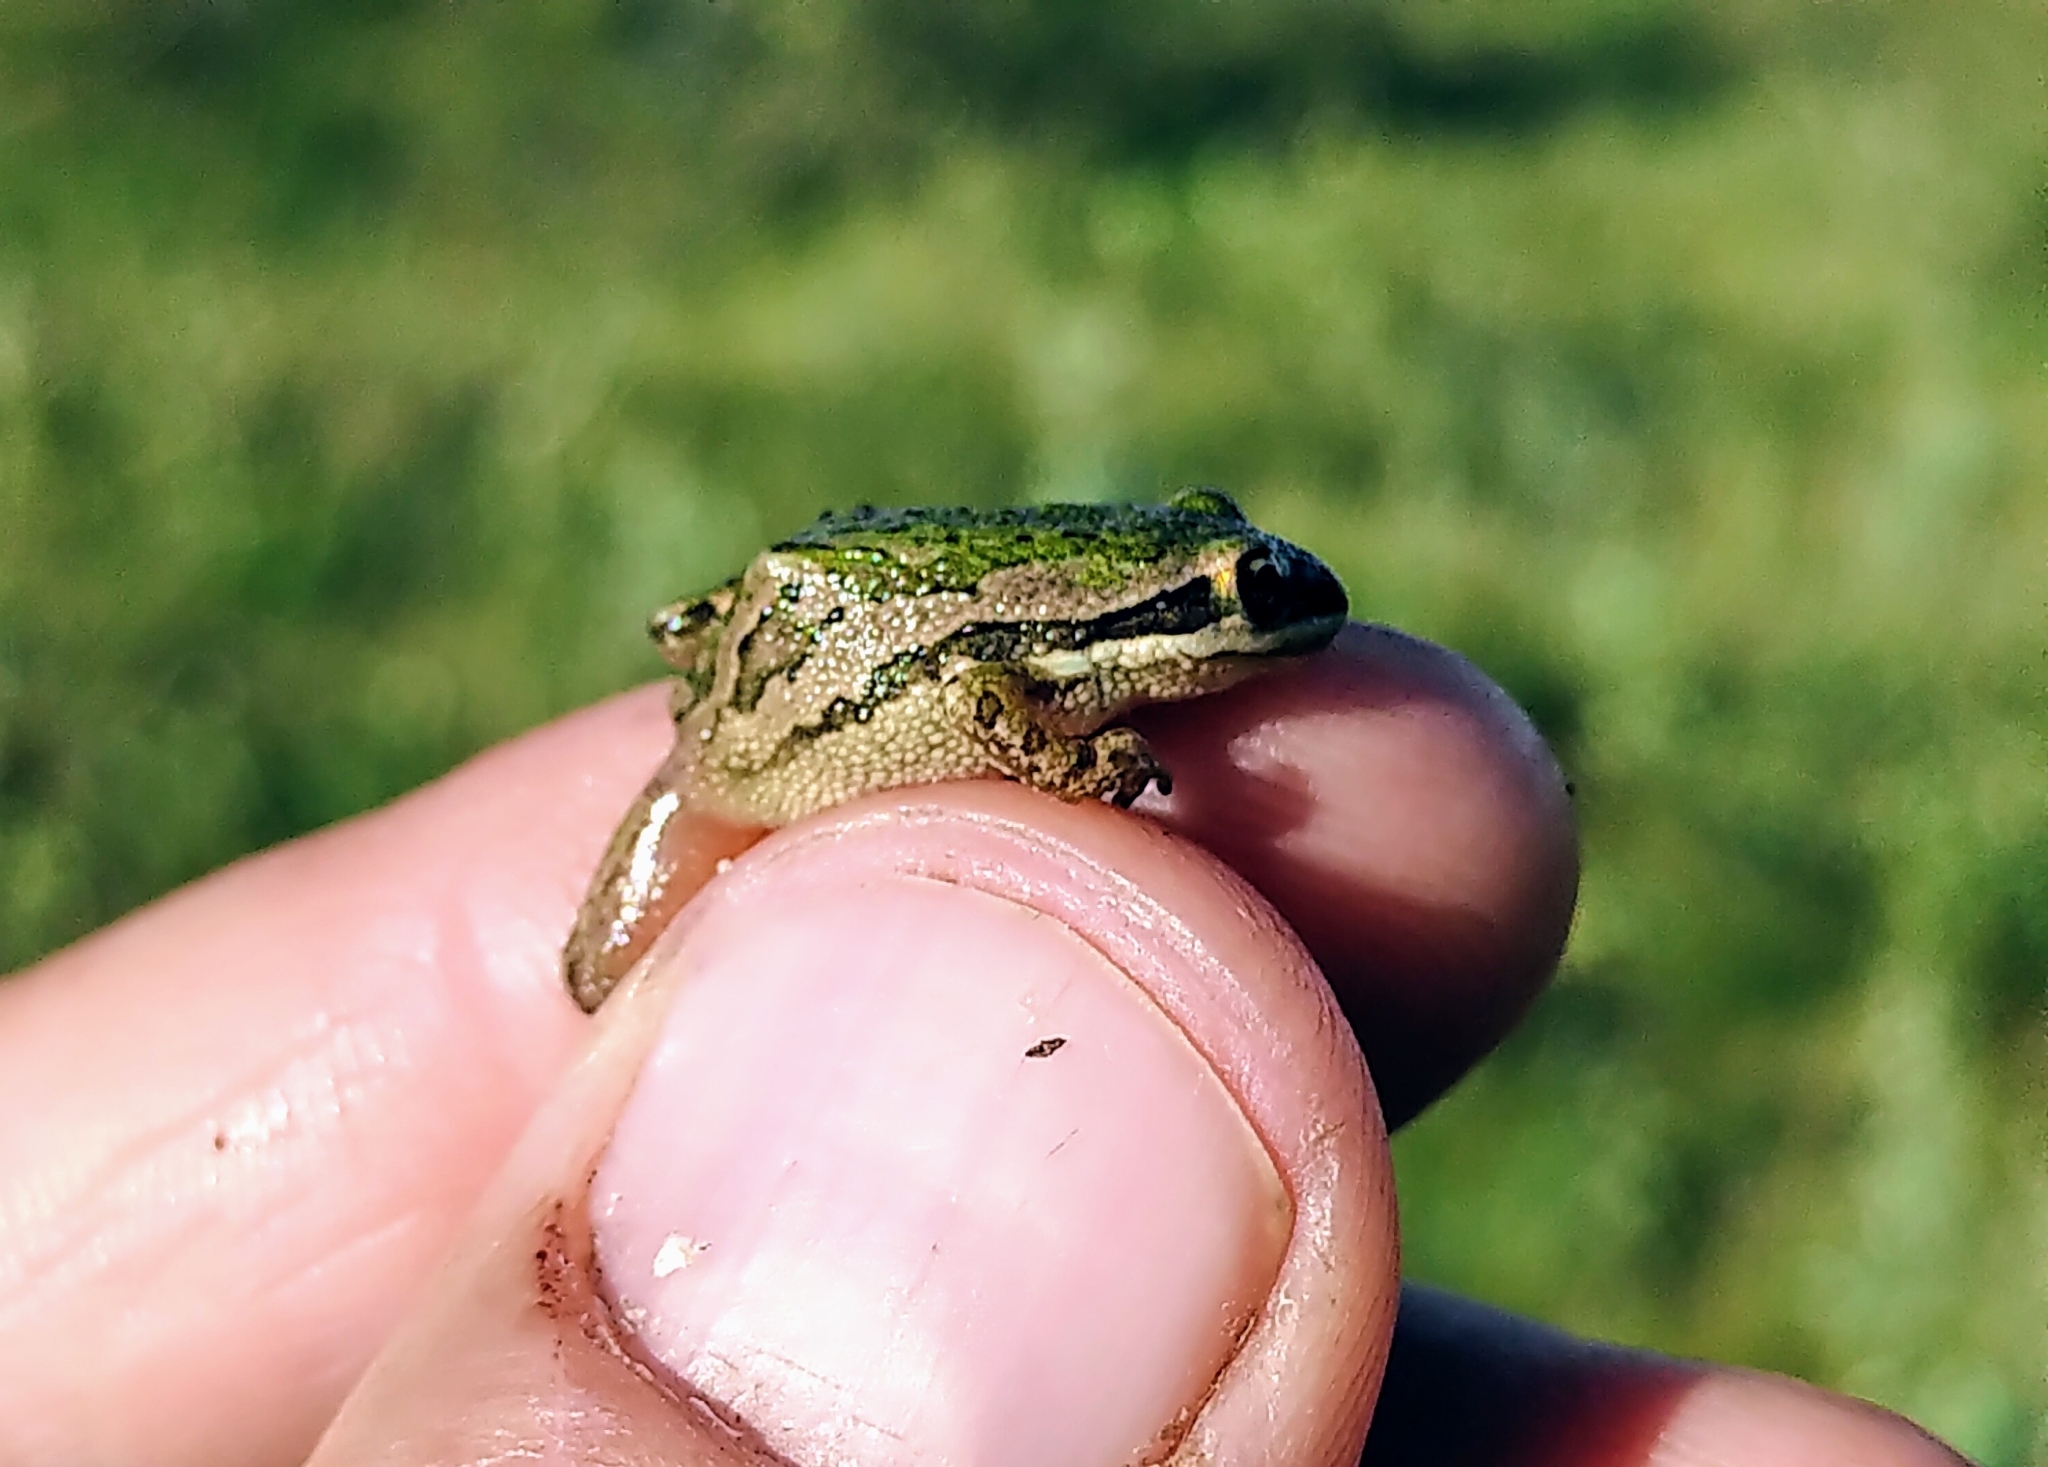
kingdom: Animalia
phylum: Chordata
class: Amphibia
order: Anura
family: Hylidae
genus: Pseudacris
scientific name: Pseudacris maculata
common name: Boreal chorus frog
